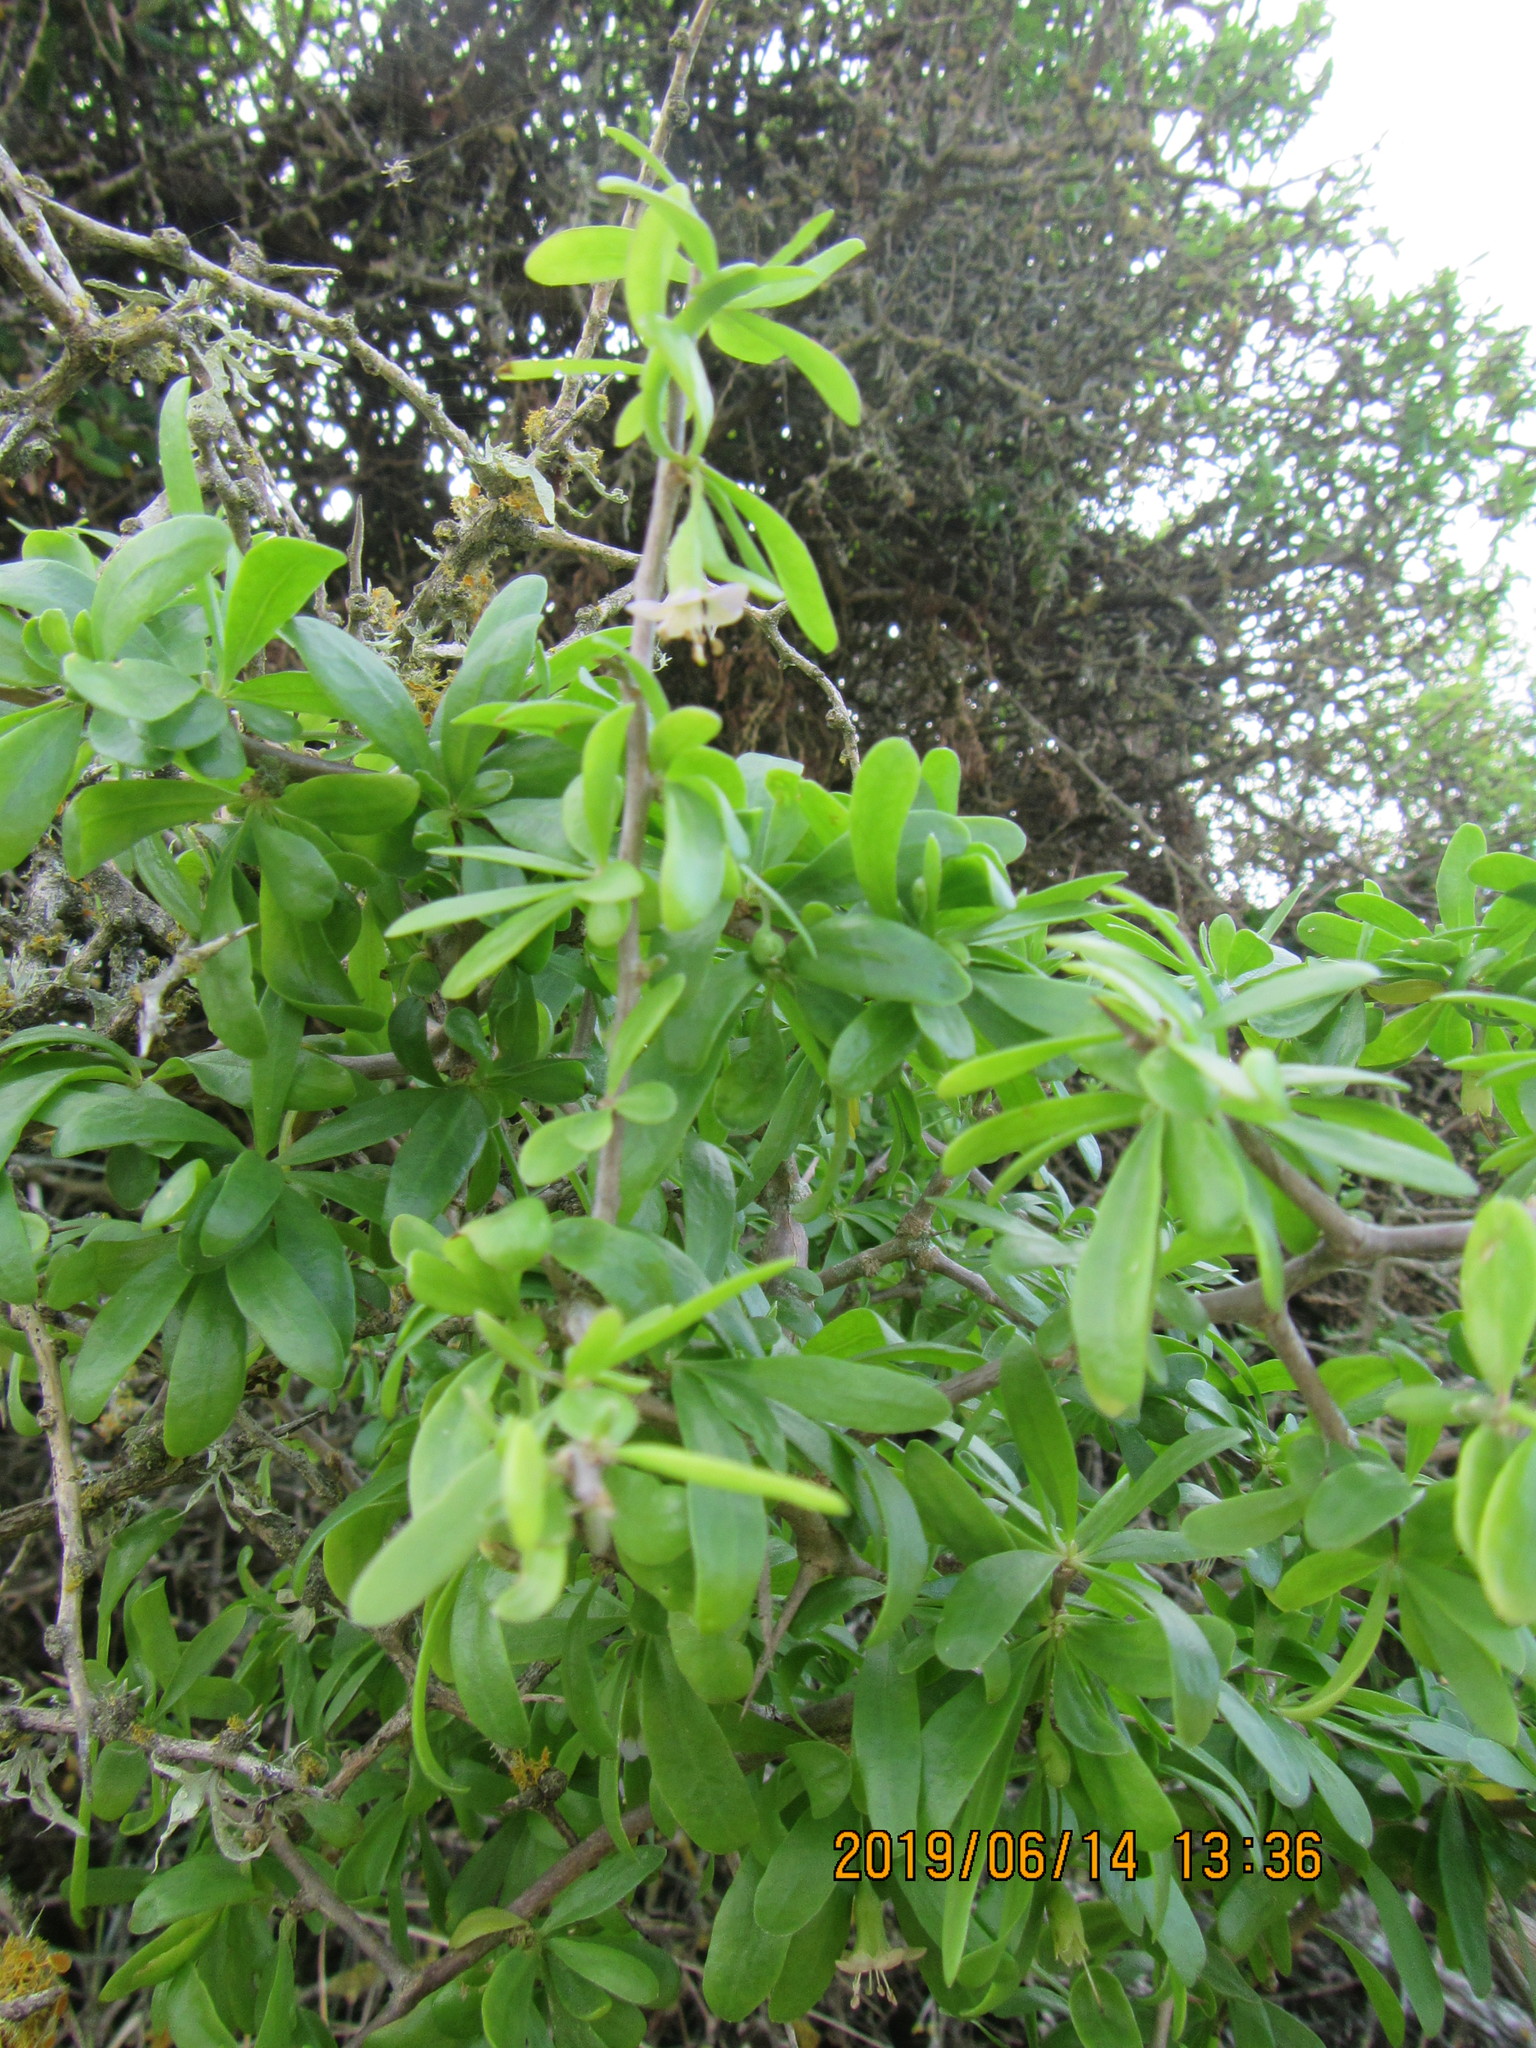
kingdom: Plantae
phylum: Tracheophyta
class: Magnoliopsida
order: Solanales
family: Solanaceae
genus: Lycium
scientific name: Lycium ferocissimum
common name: African boxthorn
